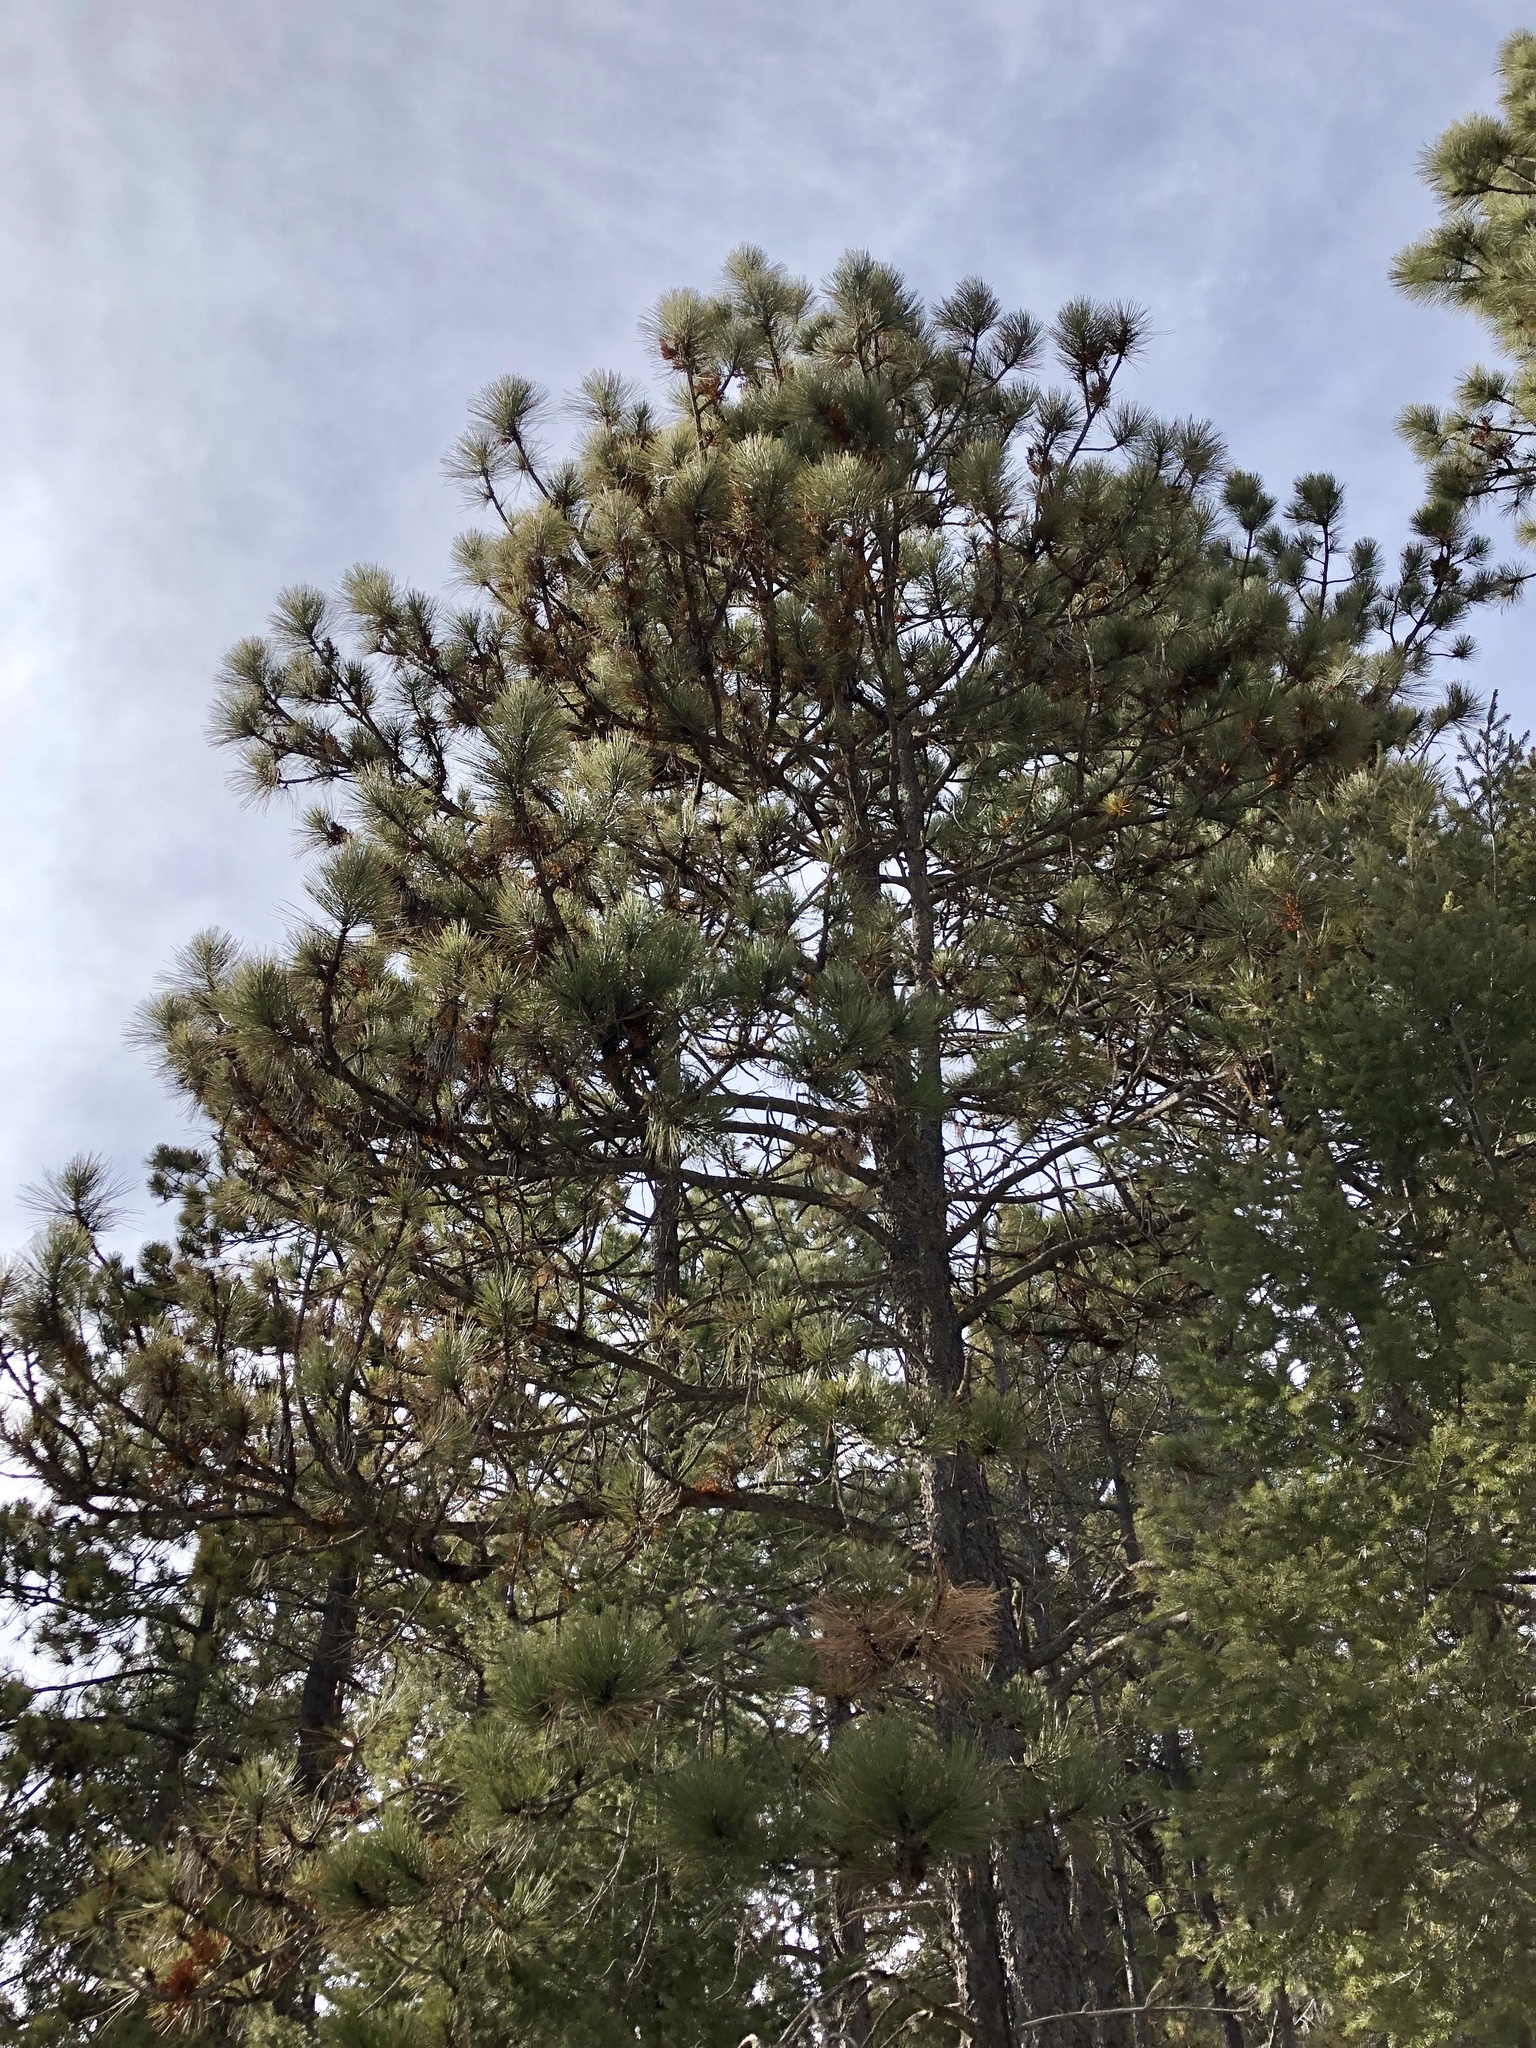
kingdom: Plantae
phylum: Tracheophyta
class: Pinopsida
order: Pinales
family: Pinaceae
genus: Pinus
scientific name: Pinus ponderosa
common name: Western yellow-pine
